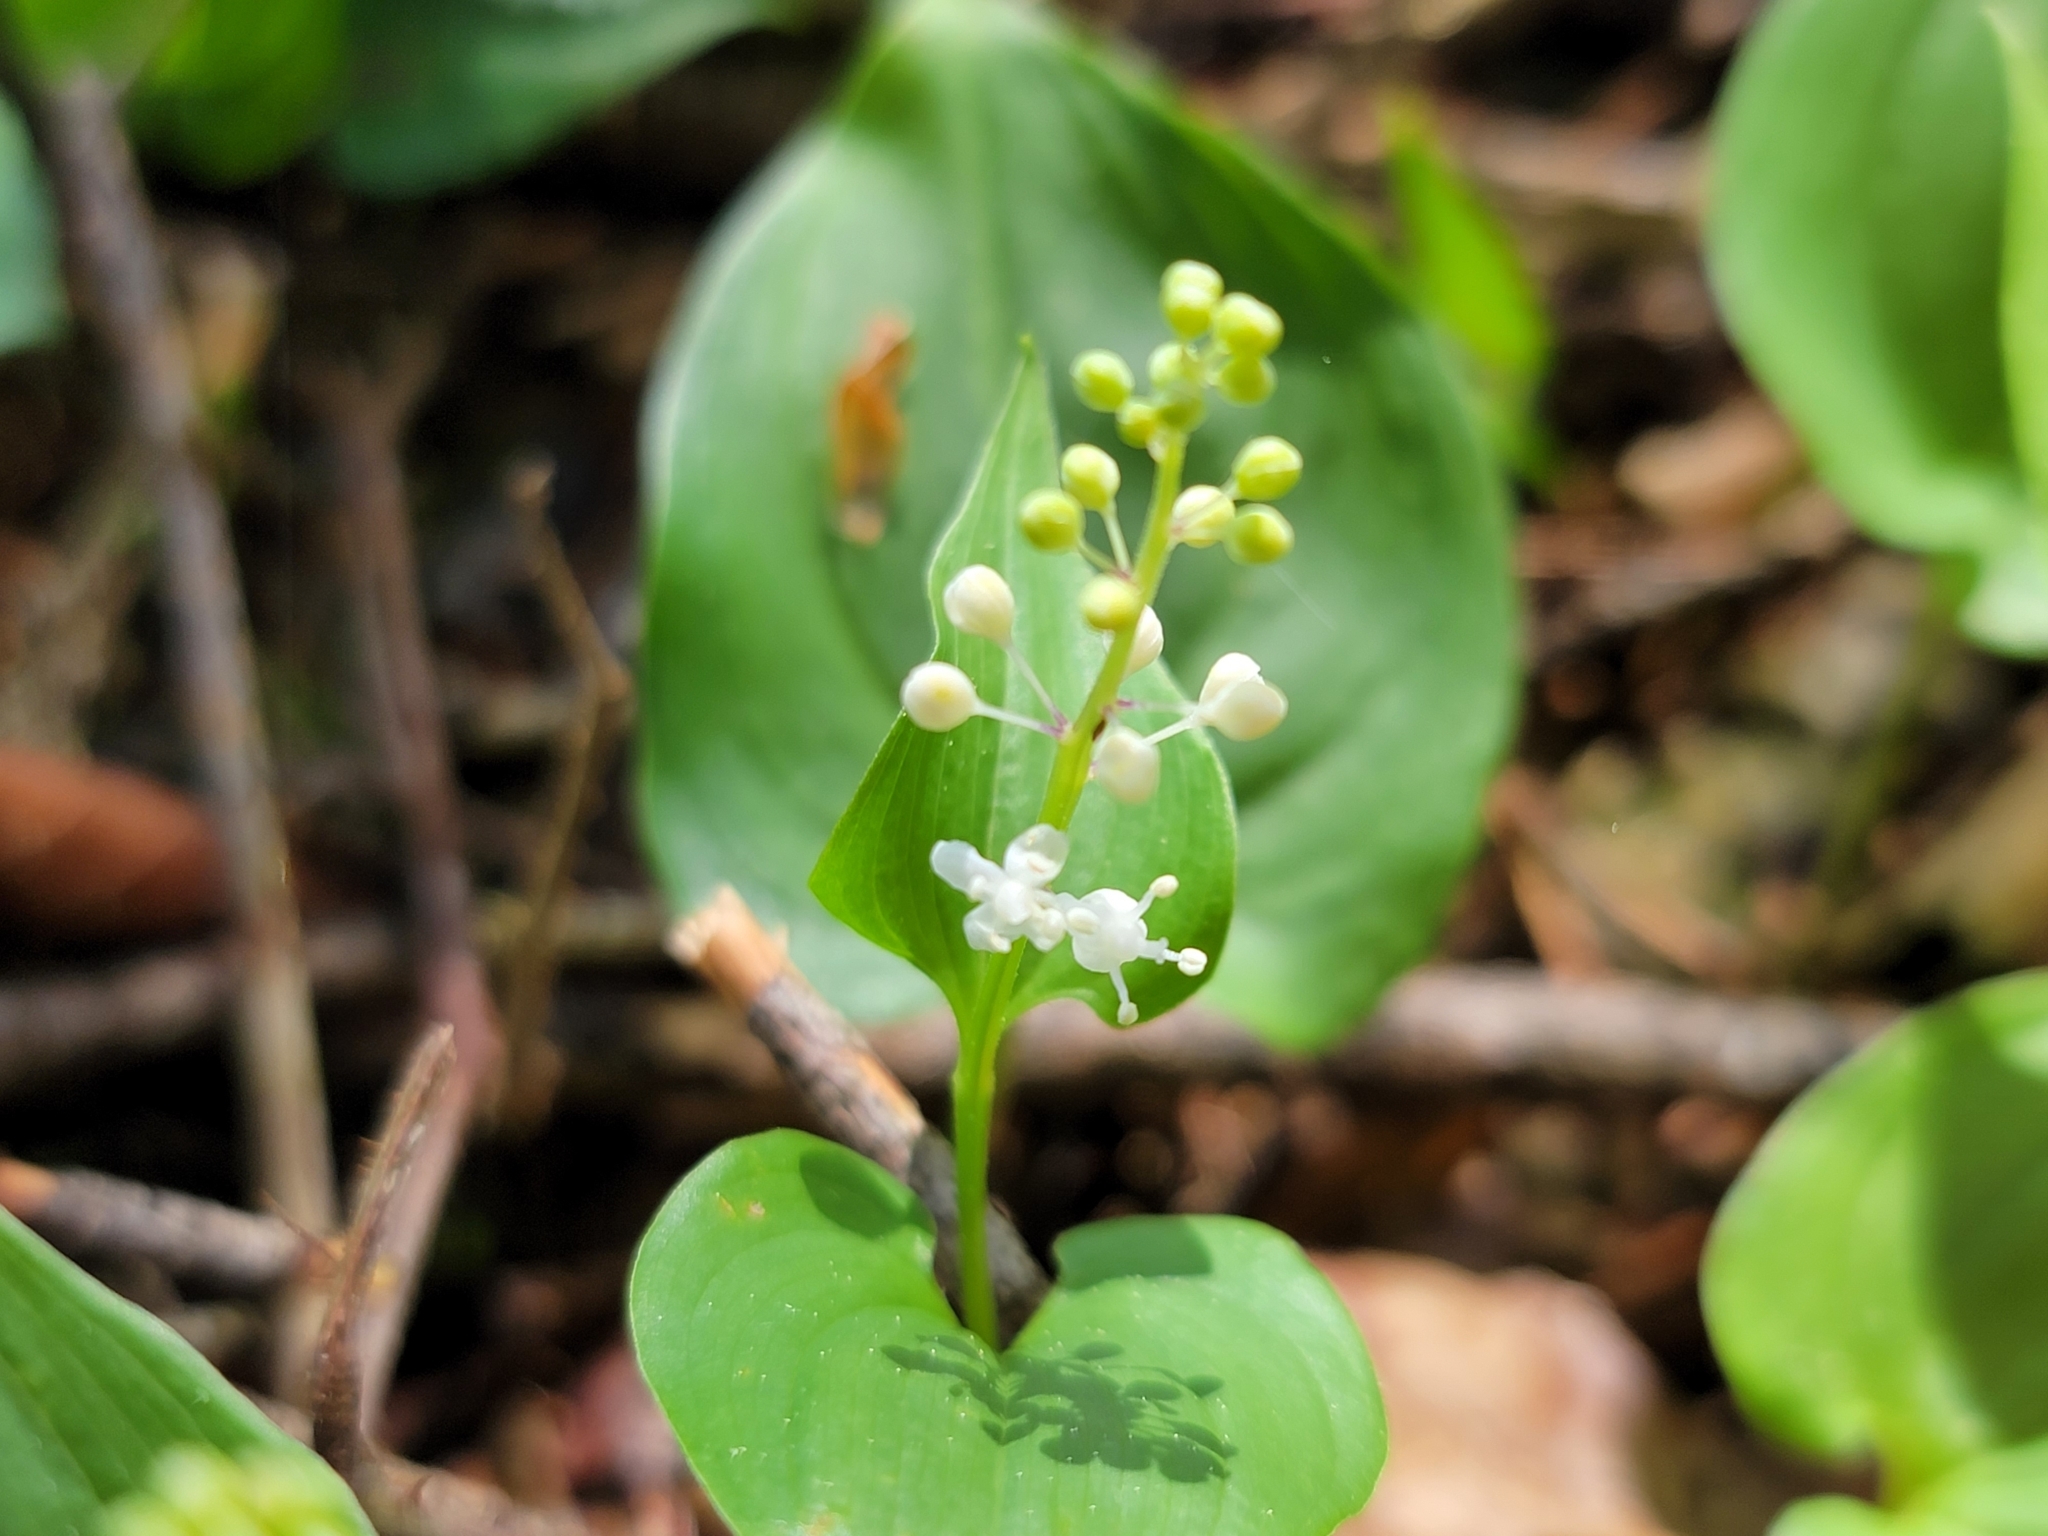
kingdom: Plantae
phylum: Tracheophyta
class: Liliopsida
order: Asparagales
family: Asparagaceae
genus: Maianthemum
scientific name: Maianthemum bifolium
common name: May lily
